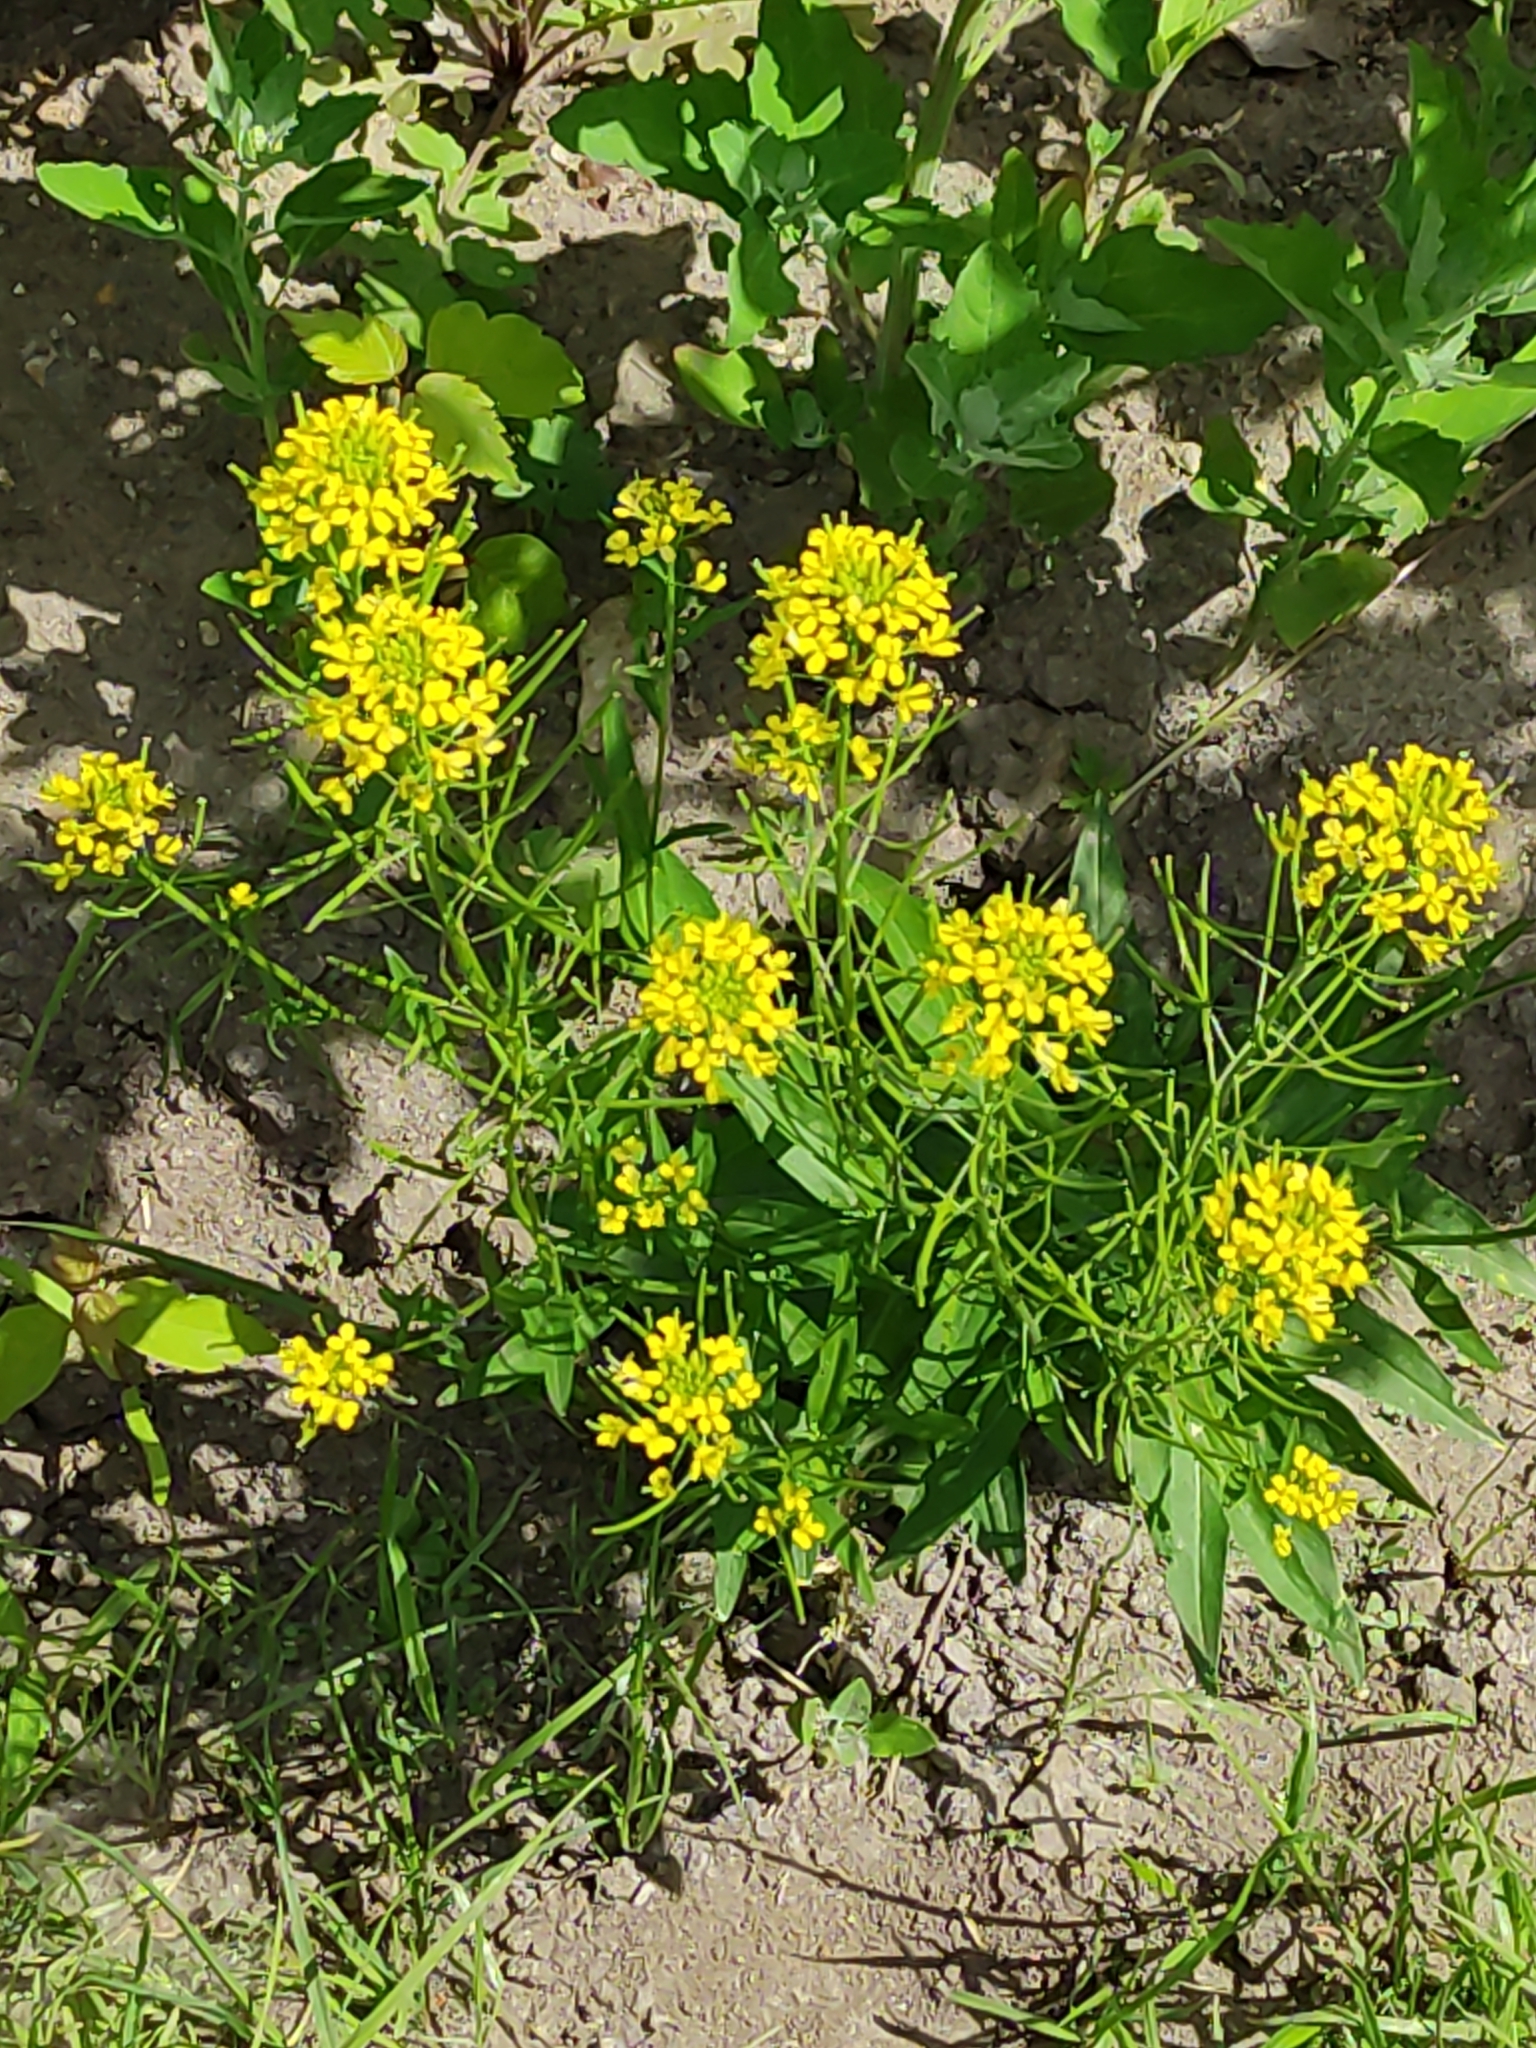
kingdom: Plantae
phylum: Tracheophyta
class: Magnoliopsida
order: Brassicales
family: Brassicaceae
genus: Erysimum
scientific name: Erysimum cheiranthoides
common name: Treacle mustard
